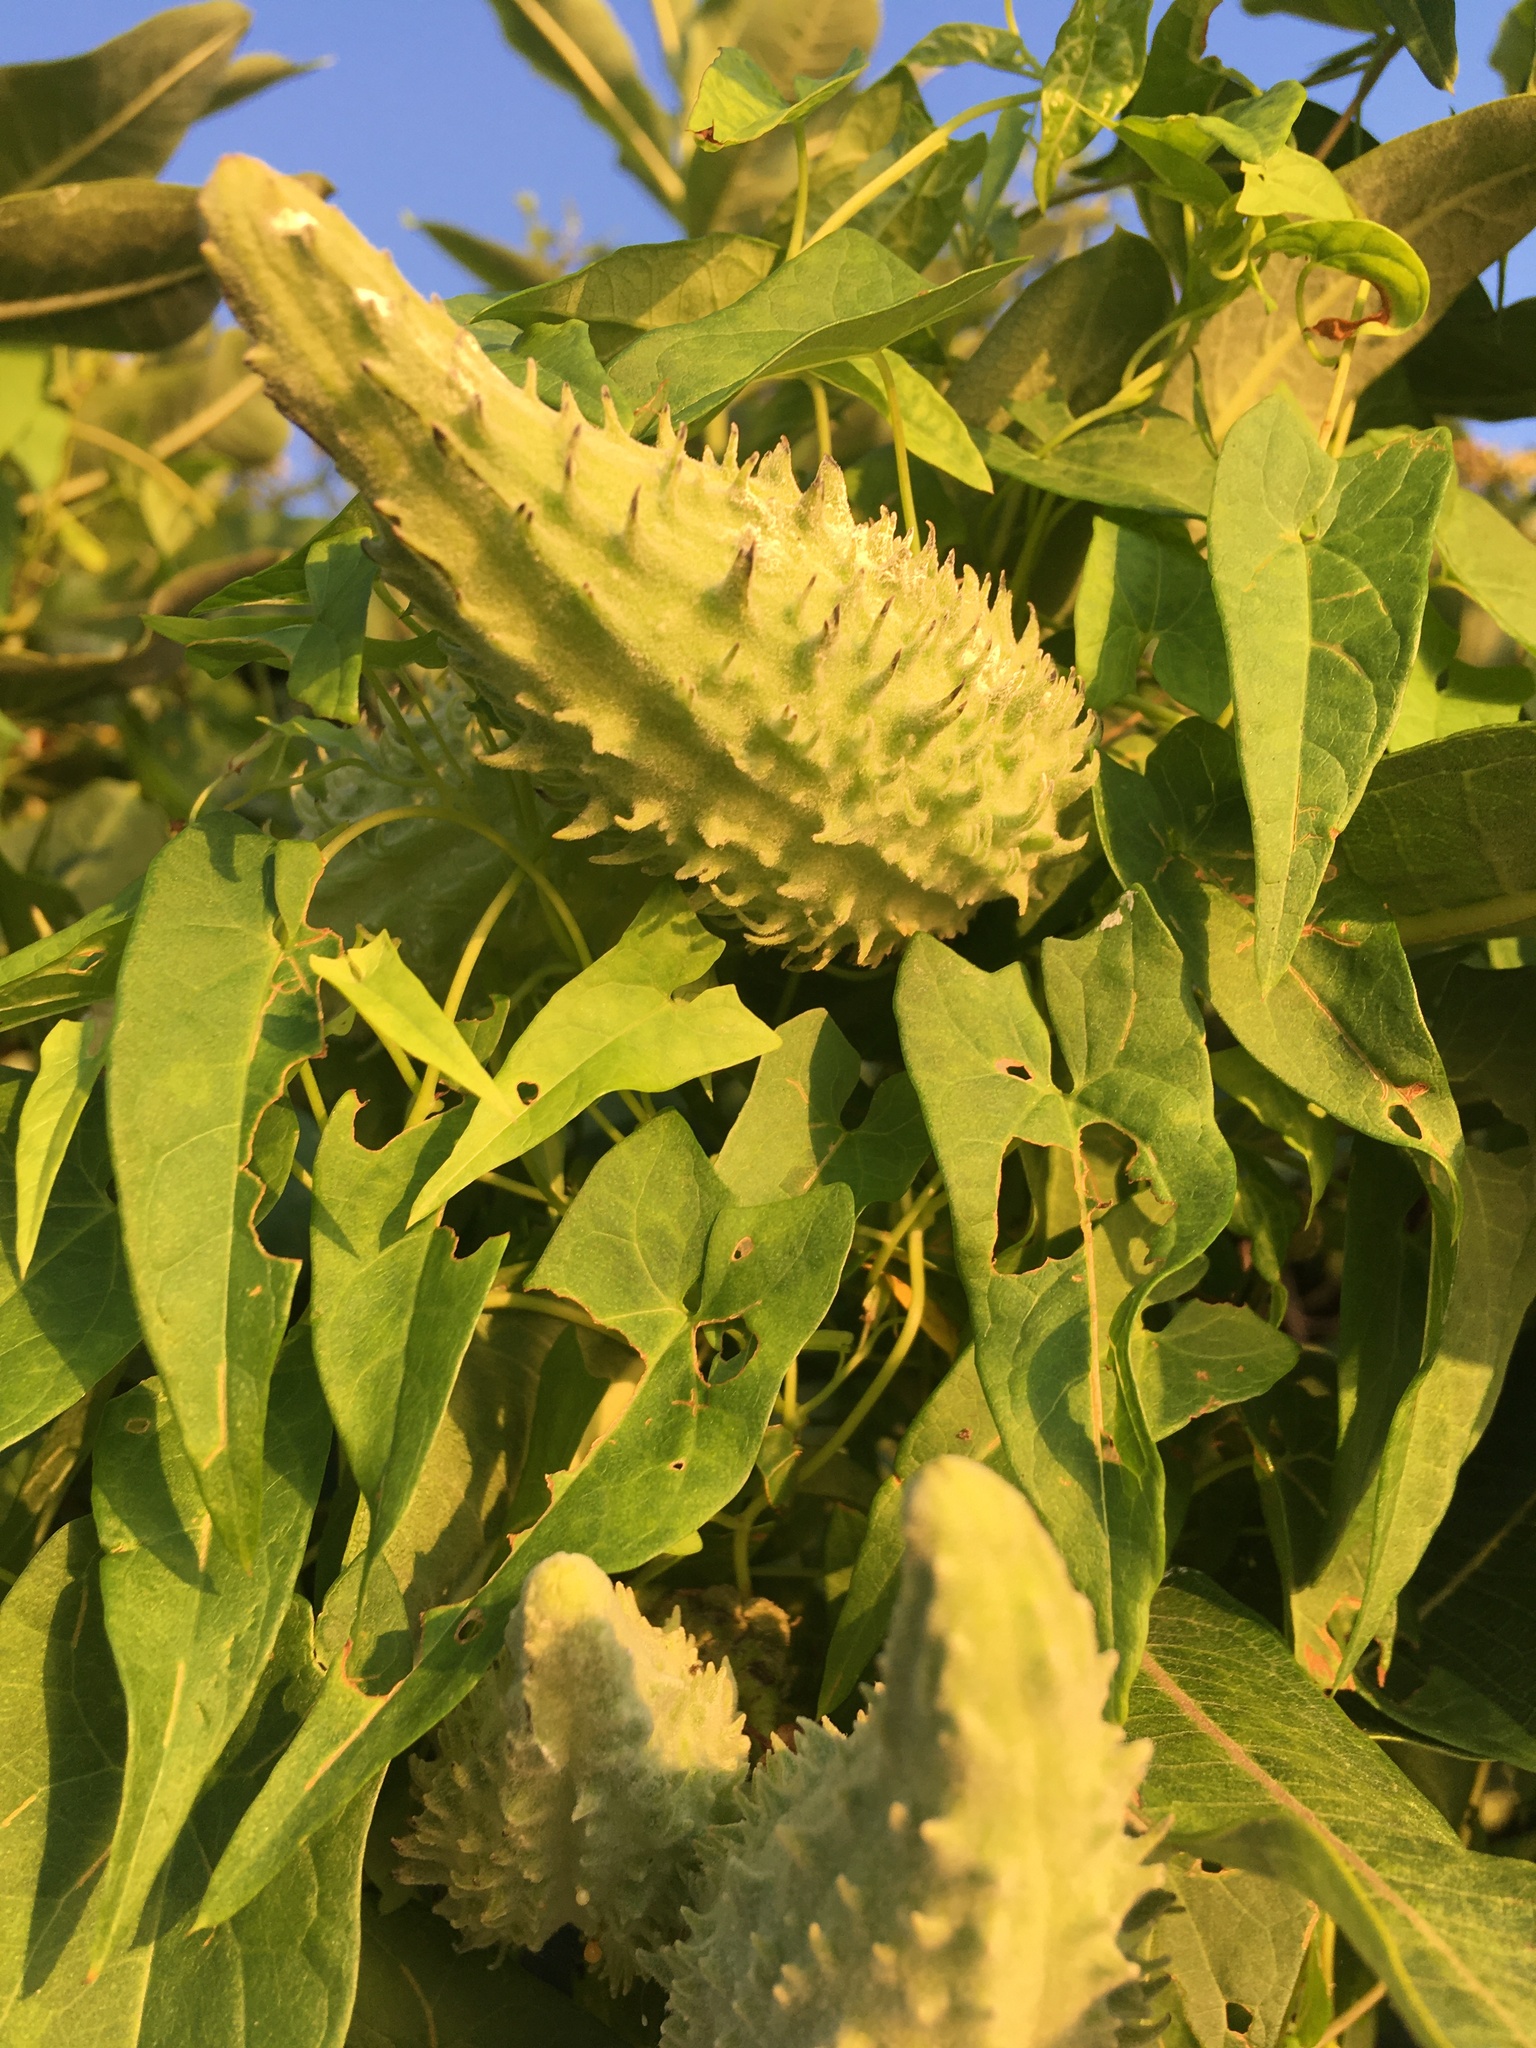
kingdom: Plantae
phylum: Tracheophyta
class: Magnoliopsida
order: Gentianales
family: Apocynaceae
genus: Asclepias
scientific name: Asclepias syriaca
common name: Common milkweed
